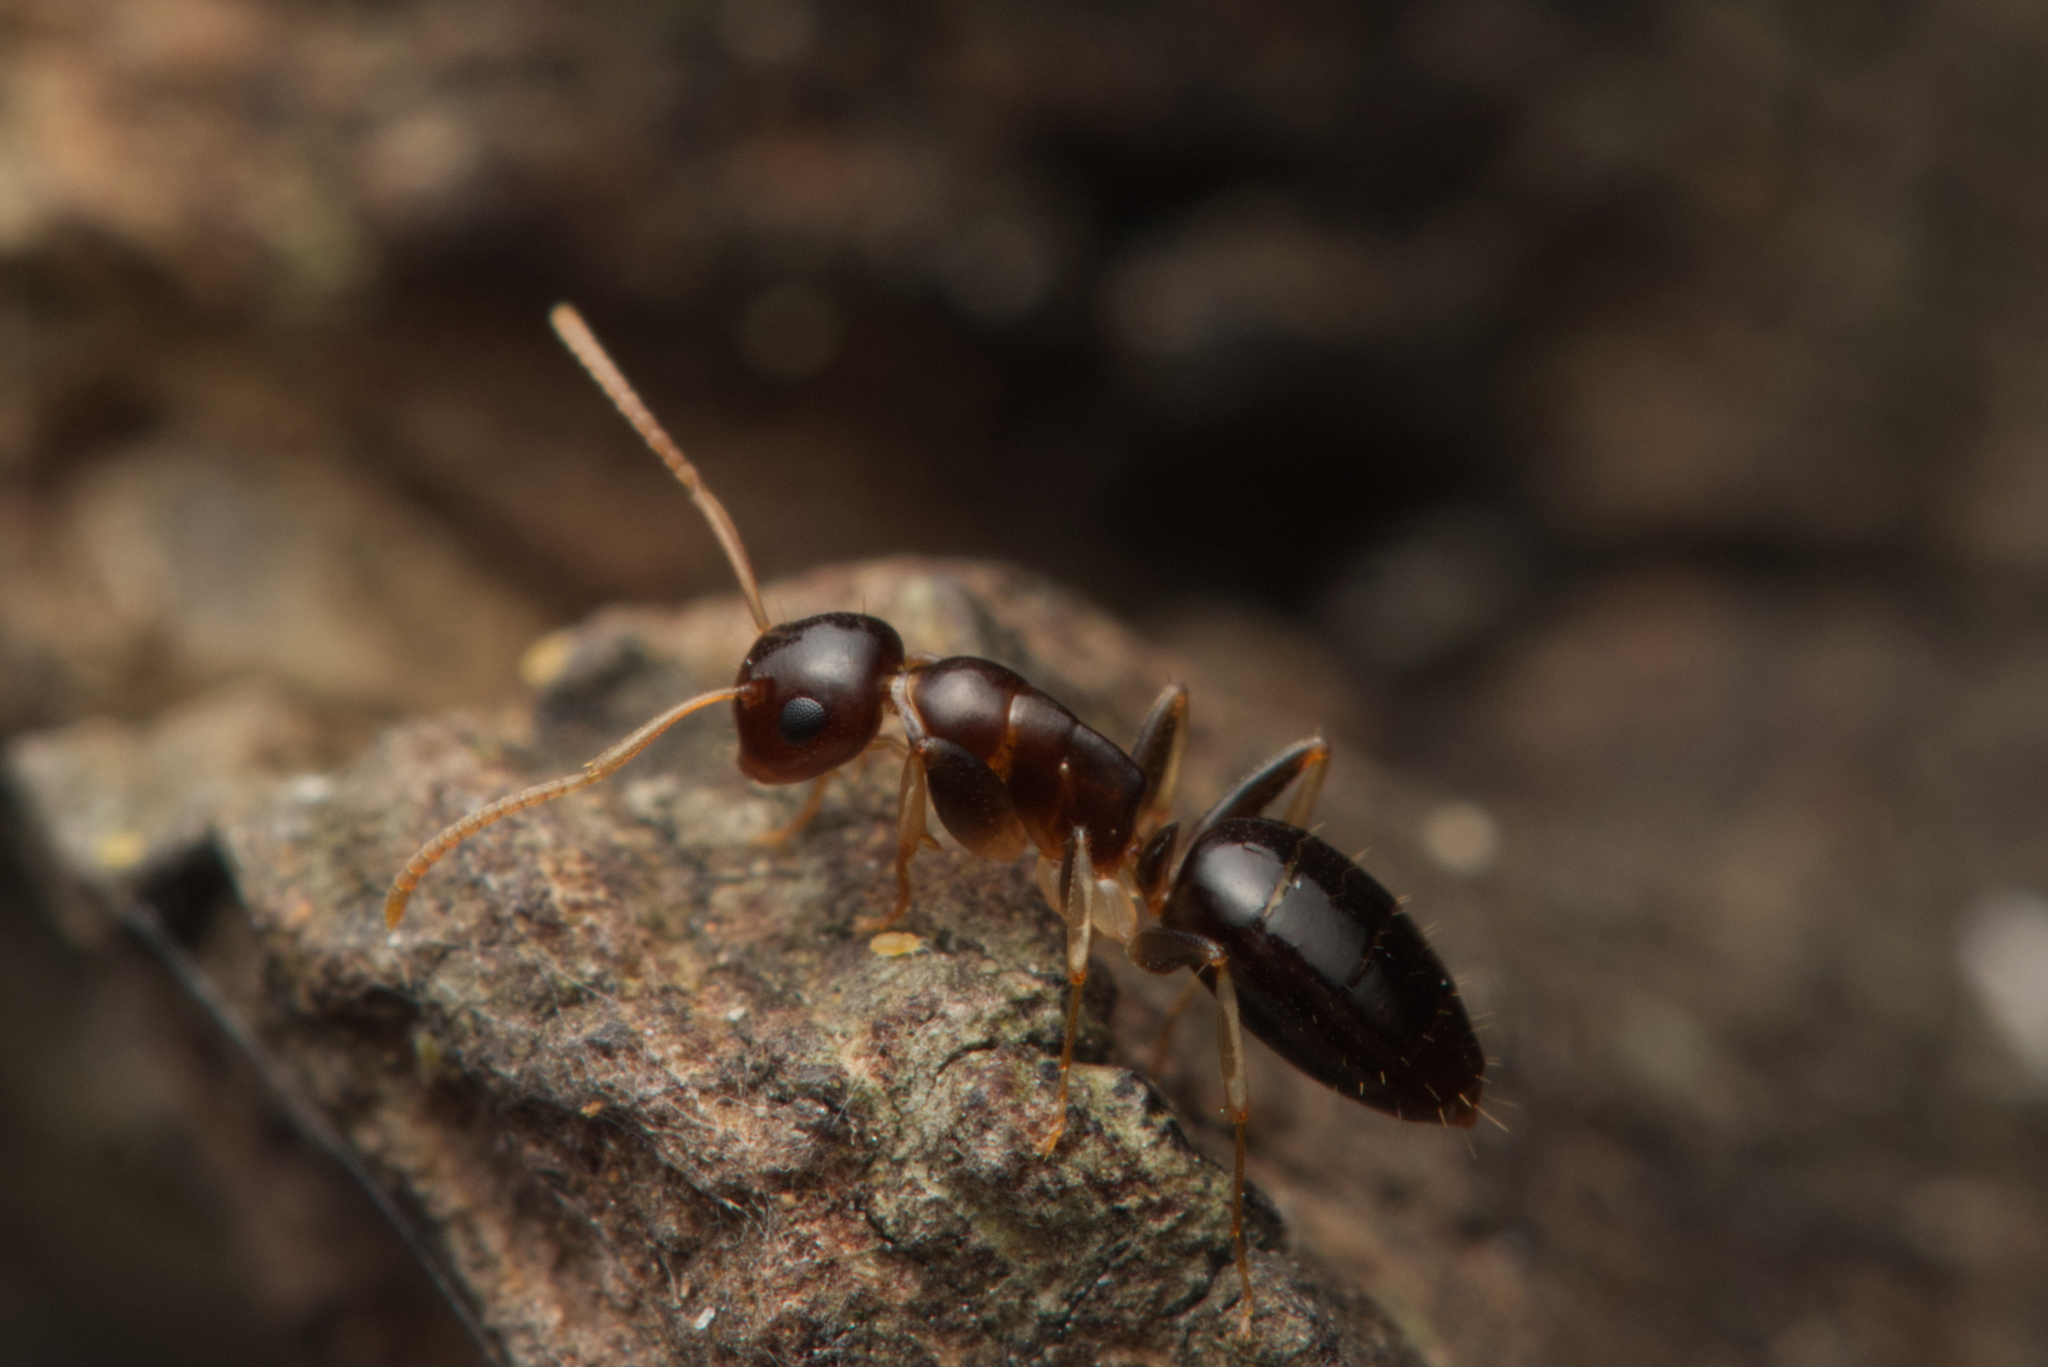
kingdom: Animalia
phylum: Arthropoda
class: Insecta
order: Hymenoptera
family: Formicidae
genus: Colobopsis
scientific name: Colobopsis
